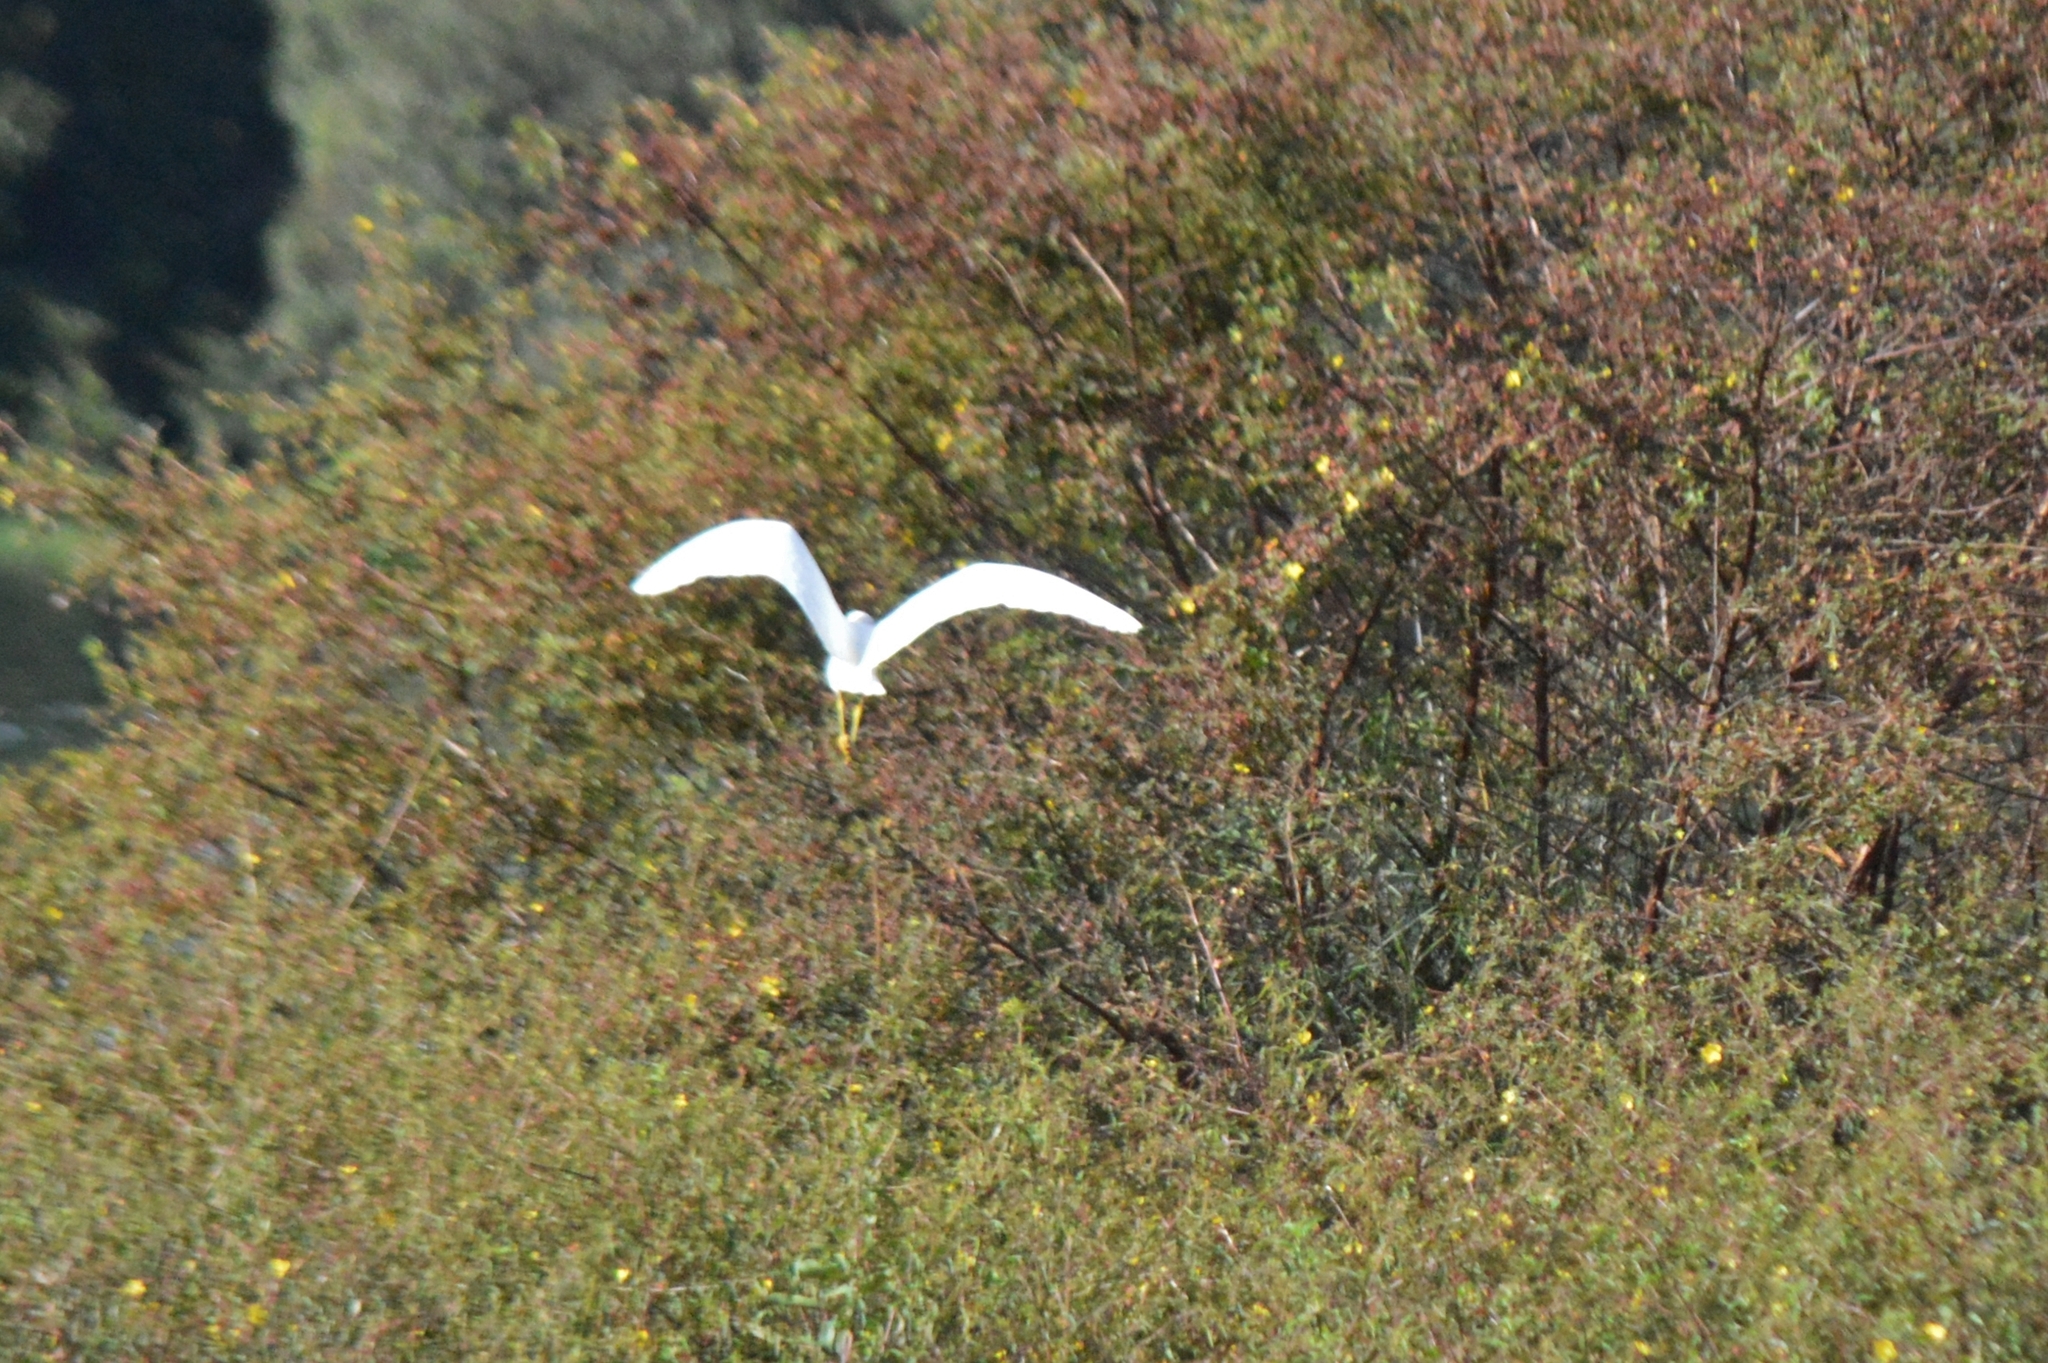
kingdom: Animalia
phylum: Chordata
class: Aves
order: Pelecaniformes
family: Ardeidae
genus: Egretta
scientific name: Egretta thula
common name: Snowy egret
